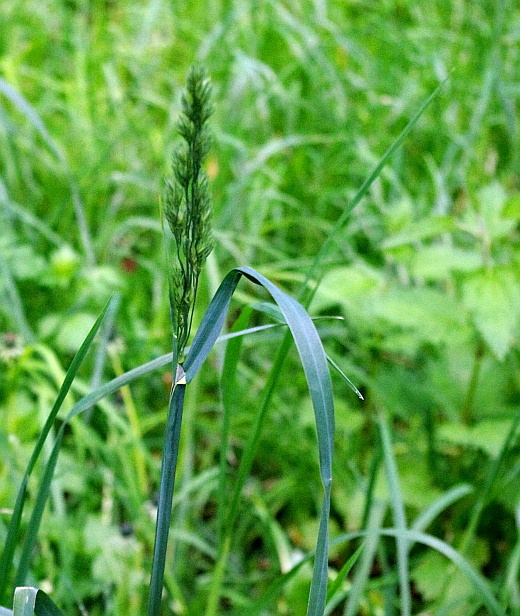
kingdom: Plantae
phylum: Tracheophyta
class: Liliopsida
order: Poales
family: Poaceae
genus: Dactylis
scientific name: Dactylis glomerata
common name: Orchardgrass
